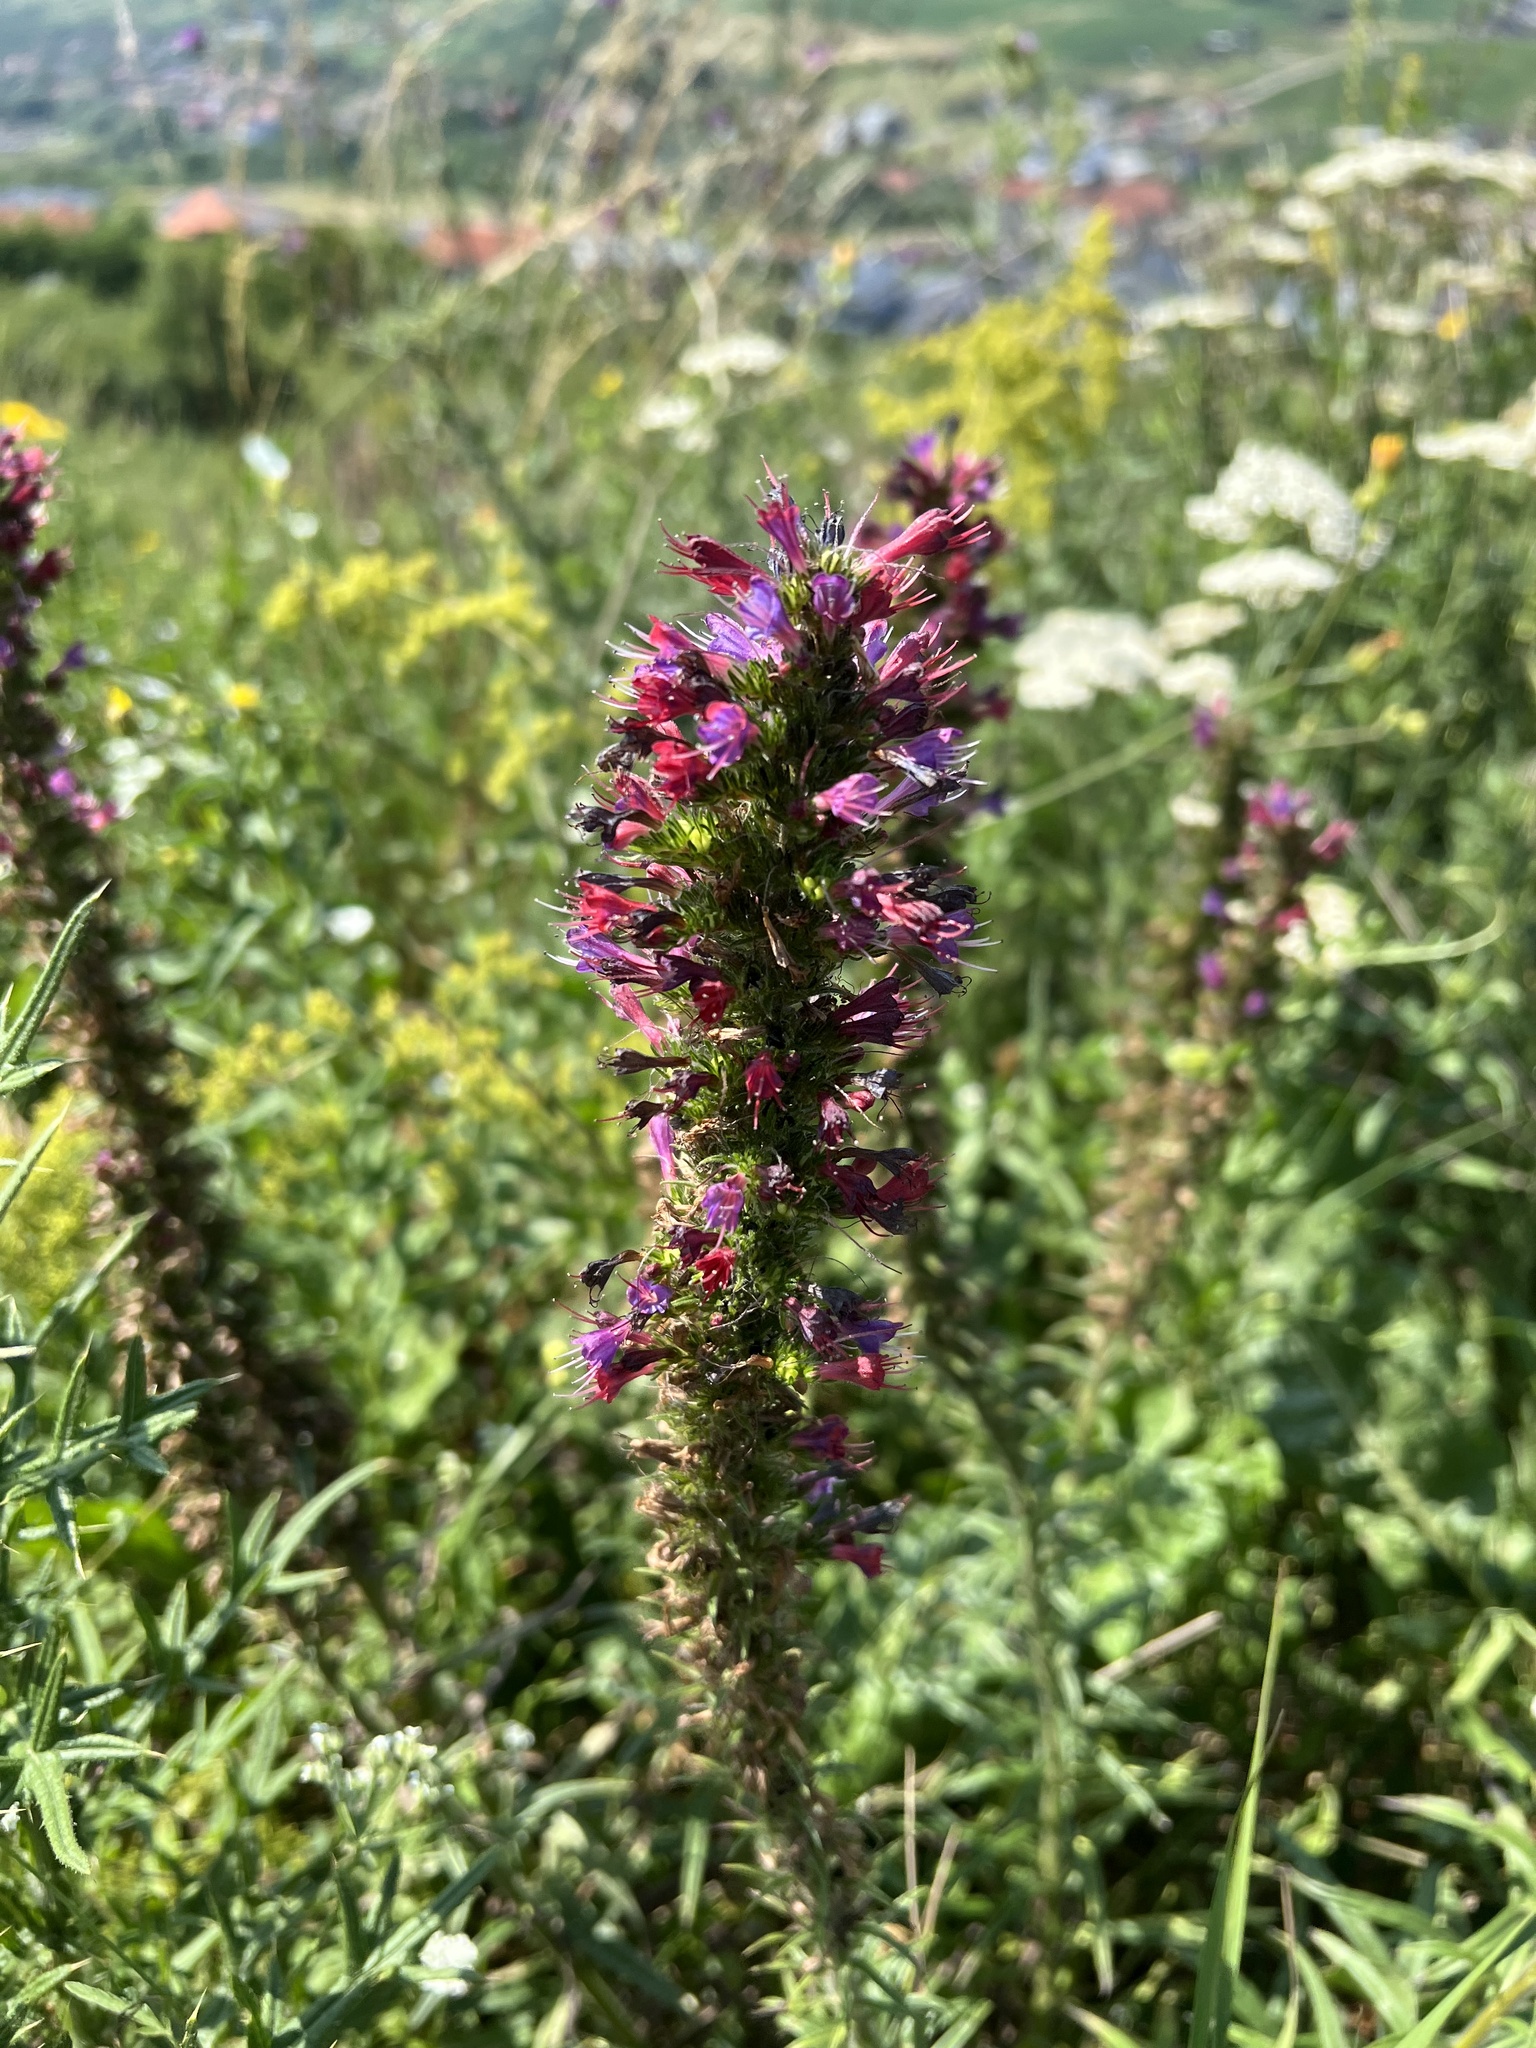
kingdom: Plantae
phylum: Tracheophyta
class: Magnoliopsida
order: Boraginales
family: Boraginaceae
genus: Pontechium
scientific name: Pontechium maculatum
